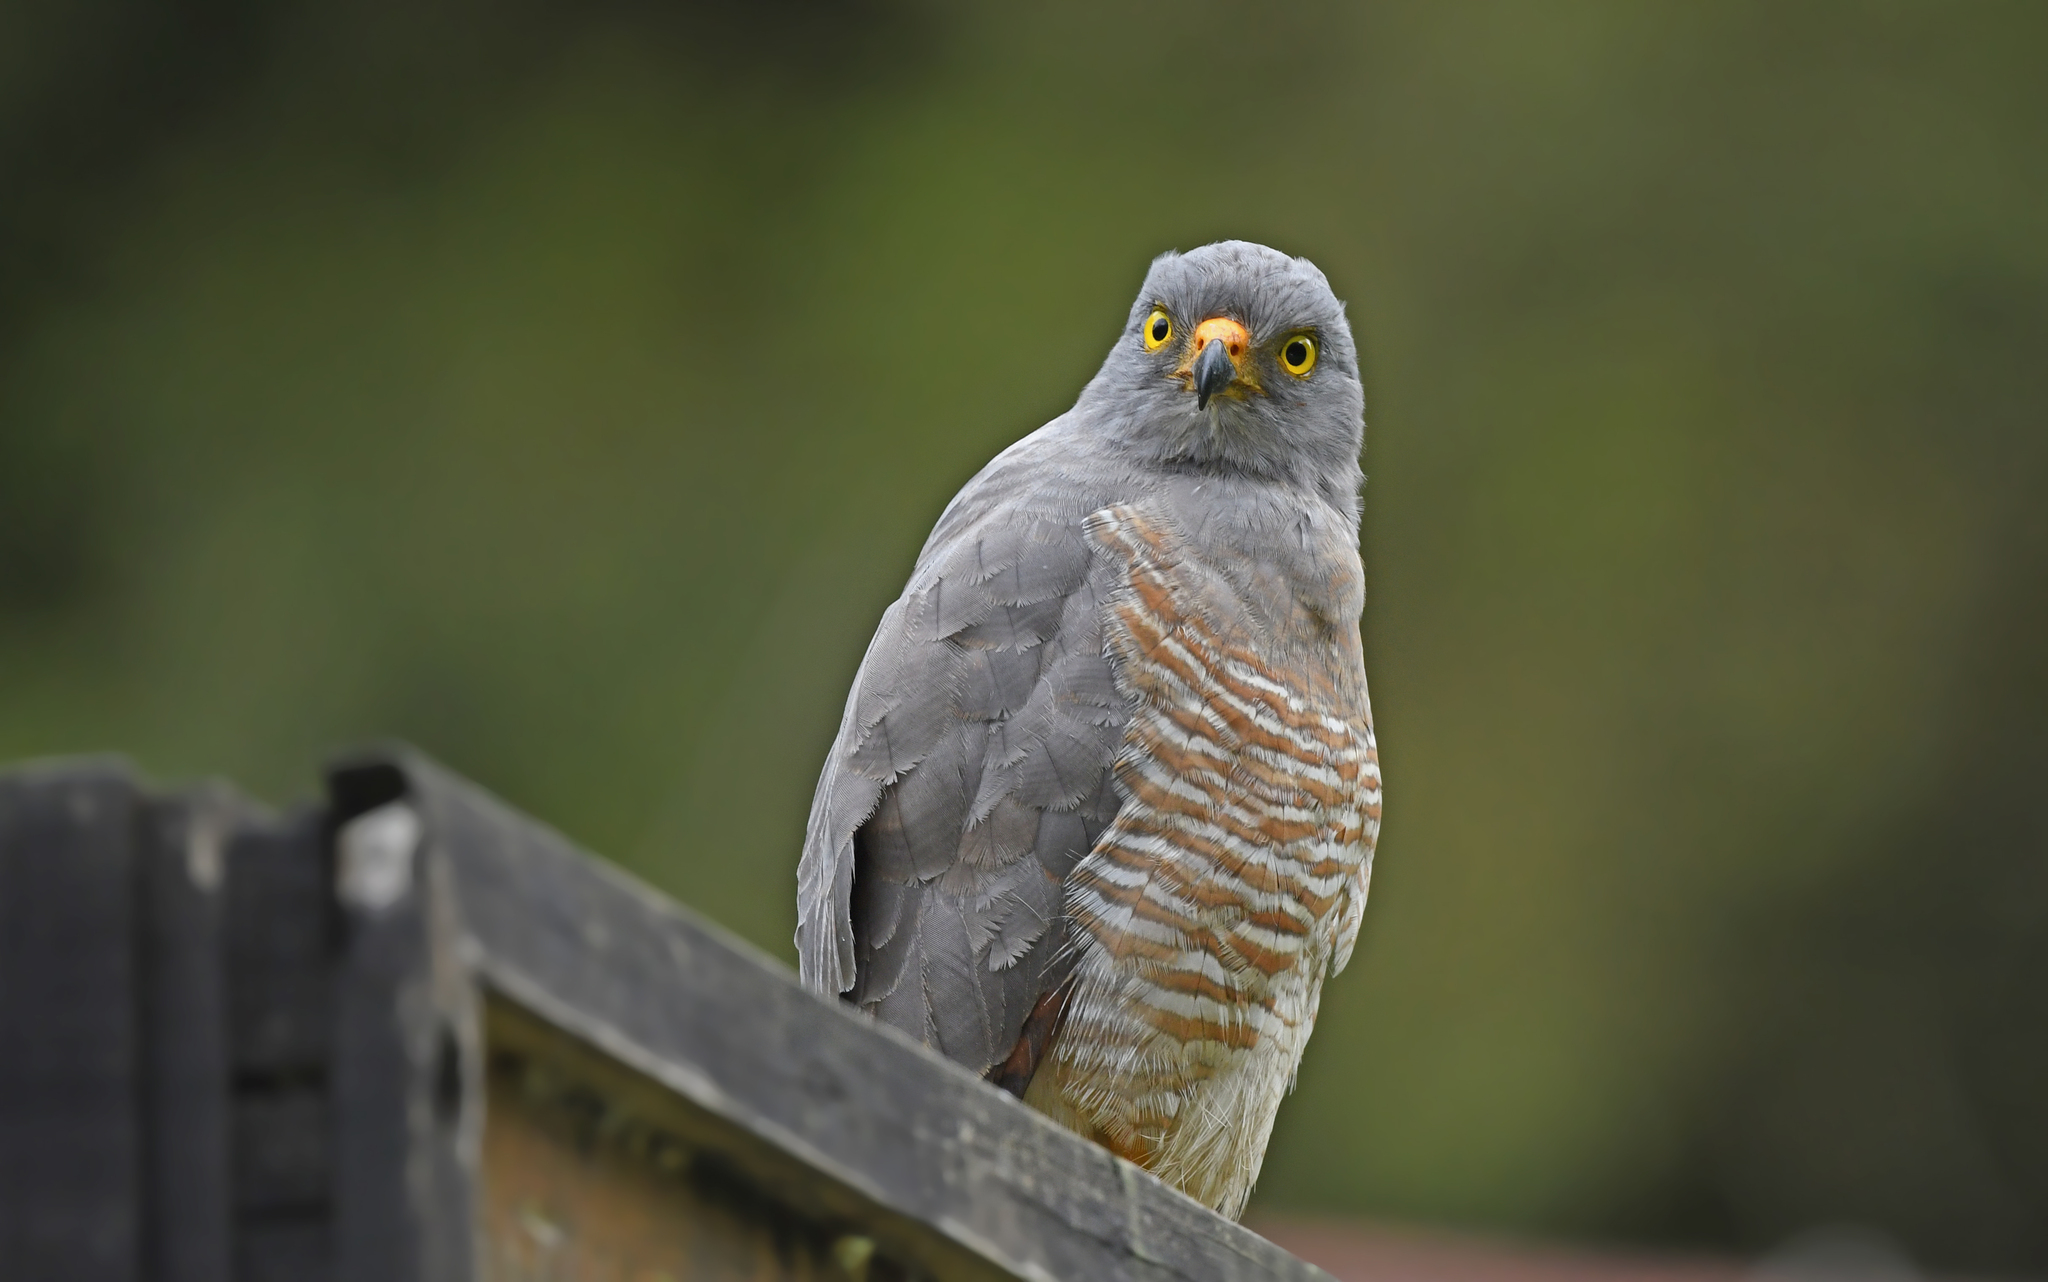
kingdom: Animalia
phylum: Chordata
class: Aves
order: Accipitriformes
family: Accipitridae
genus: Rupornis
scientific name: Rupornis magnirostris
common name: Roadside hawk
